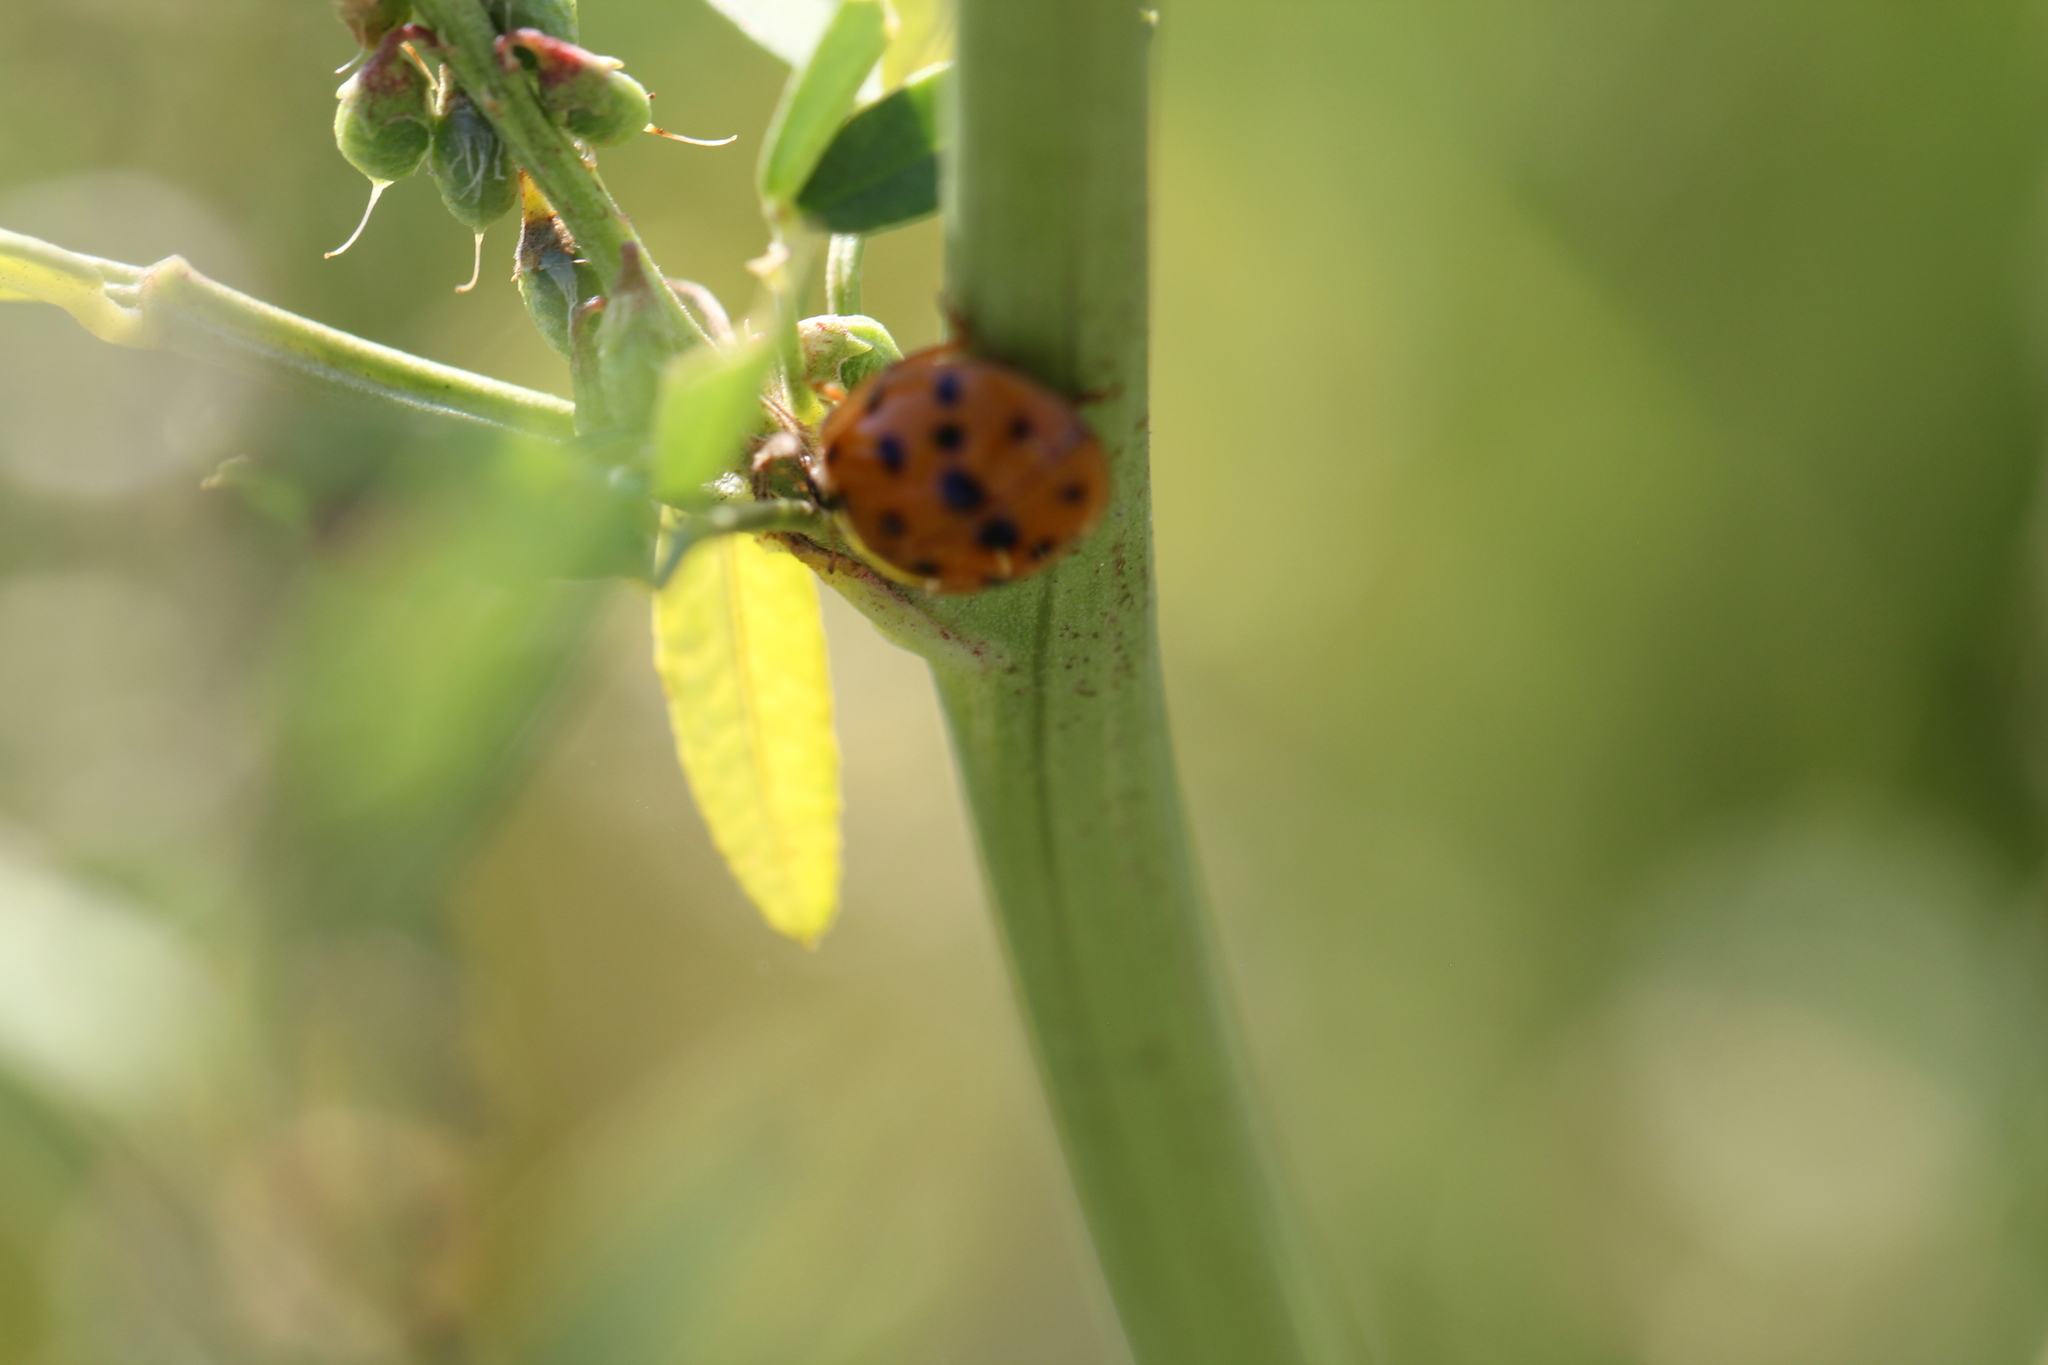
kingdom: Animalia
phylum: Arthropoda
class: Insecta
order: Coleoptera
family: Coccinellidae
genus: Harmonia
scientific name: Harmonia axyridis
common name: Harlequin ladybird
